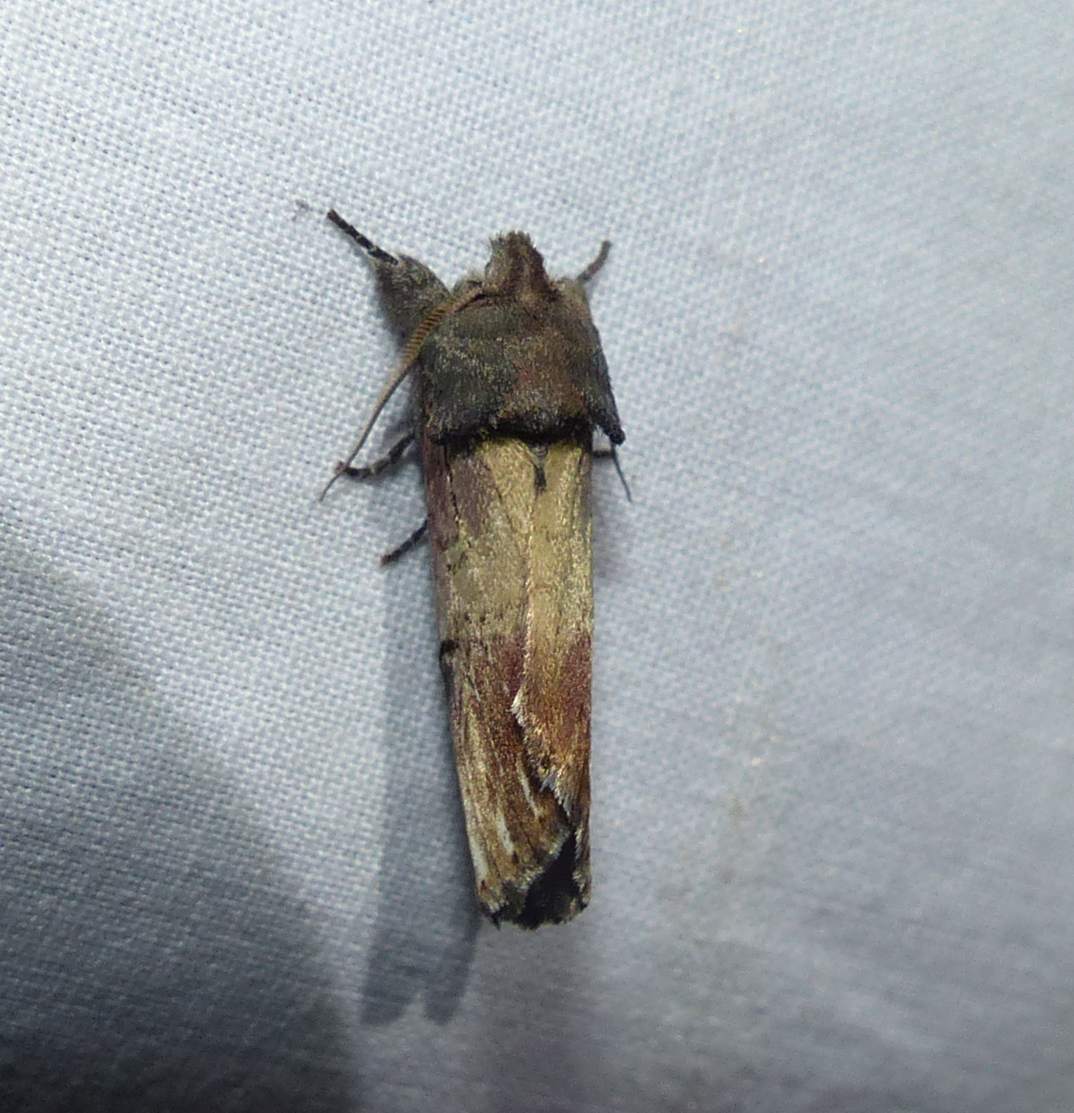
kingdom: Animalia
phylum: Arthropoda
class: Insecta
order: Lepidoptera
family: Notodontidae
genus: Schizura
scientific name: Schizura badia
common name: Chestnut schizura
